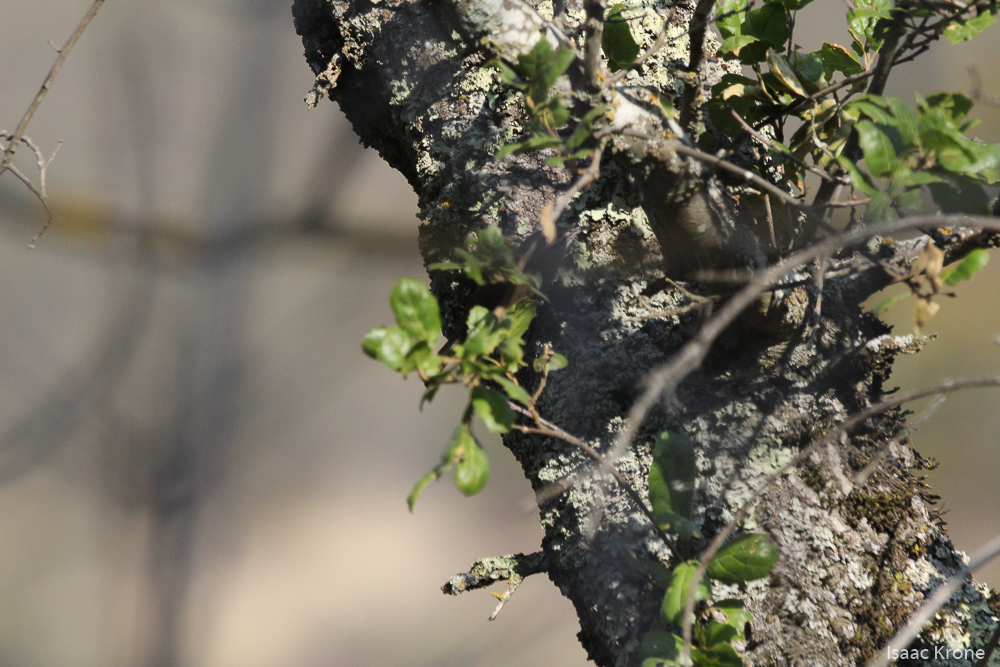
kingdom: Animalia
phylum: Chordata
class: Aves
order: Passeriformes
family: Troglodytidae
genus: Thryomanes
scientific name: Thryomanes bewickii
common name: Bewick's wren
